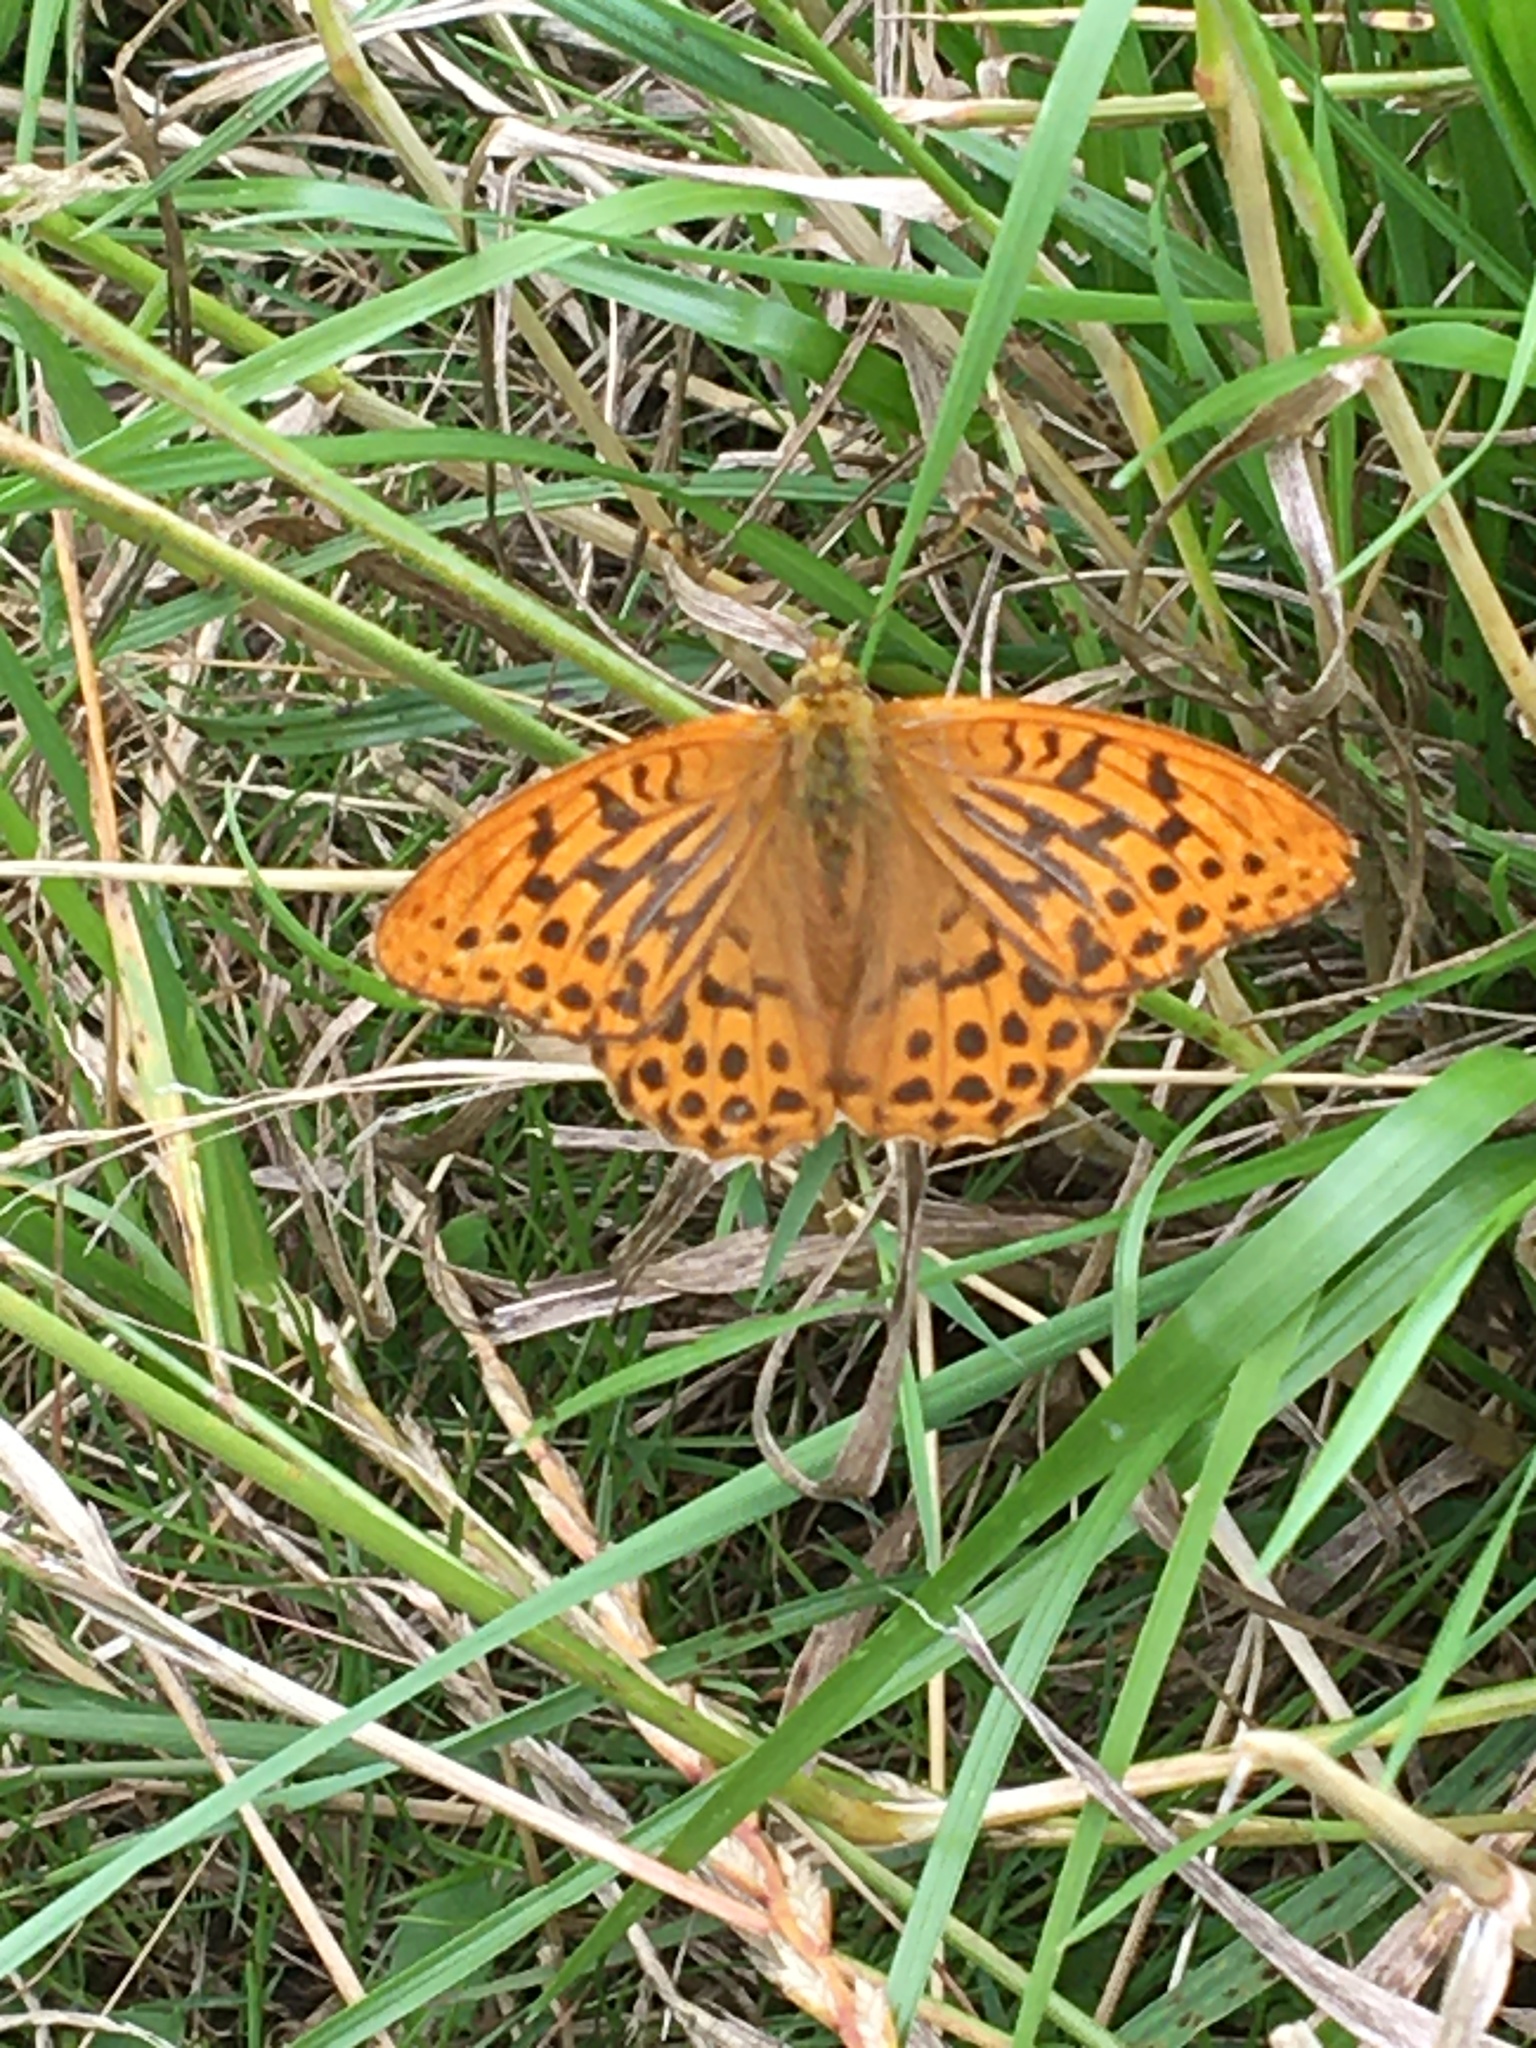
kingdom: Animalia
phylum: Arthropoda
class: Insecta
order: Lepidoptera
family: Nymphalidae
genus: Argynnis
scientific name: Argynnis paphia
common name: Silver-washed fritillary
